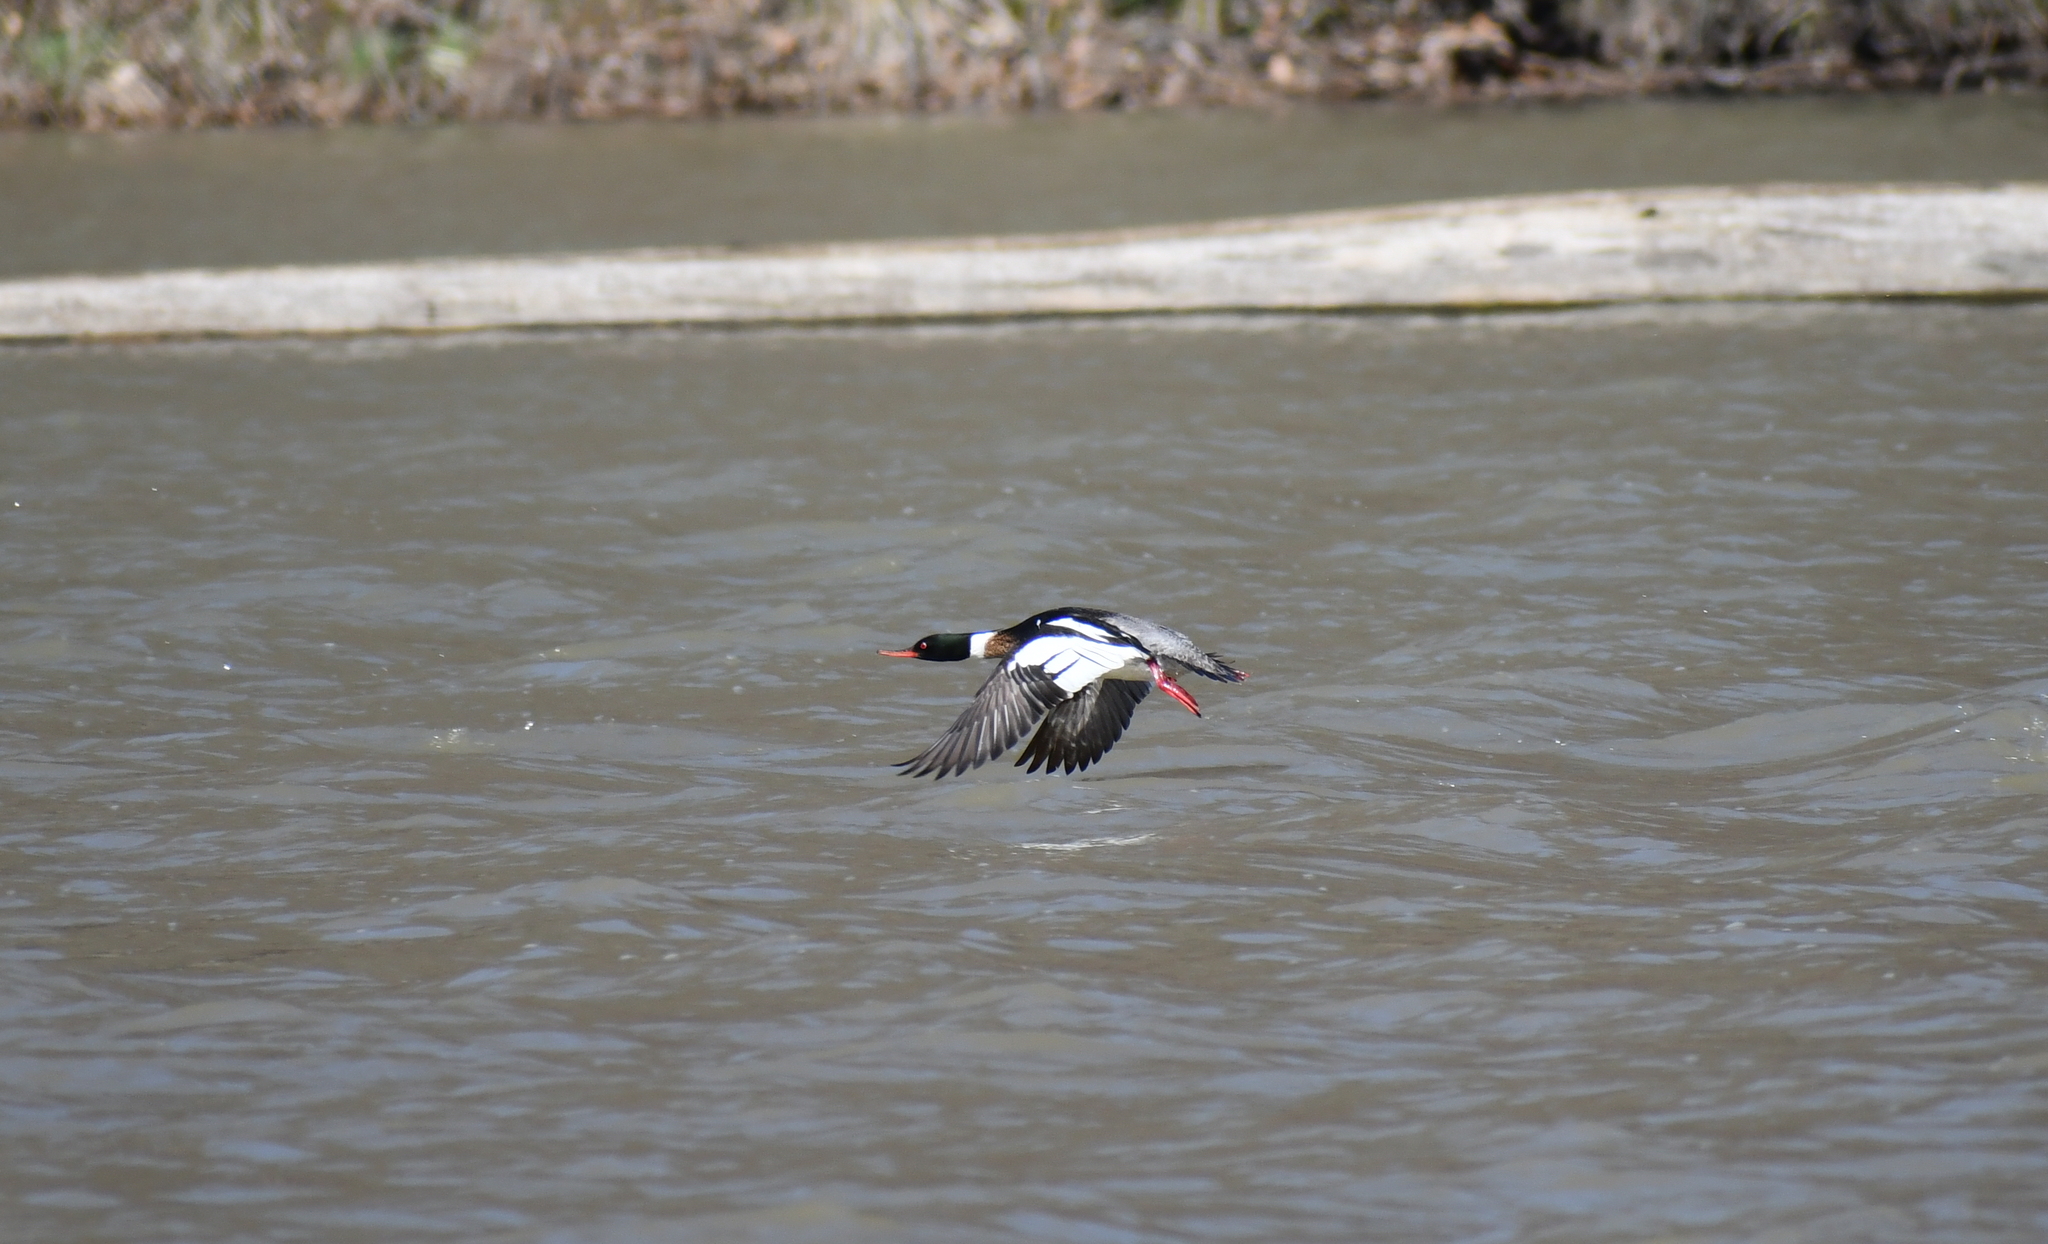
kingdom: Animalia
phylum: Chordata
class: Aves
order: Anseriformes
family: Anatidae
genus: Mergus
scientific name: Mergus serrator
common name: Red-breasted merganser
